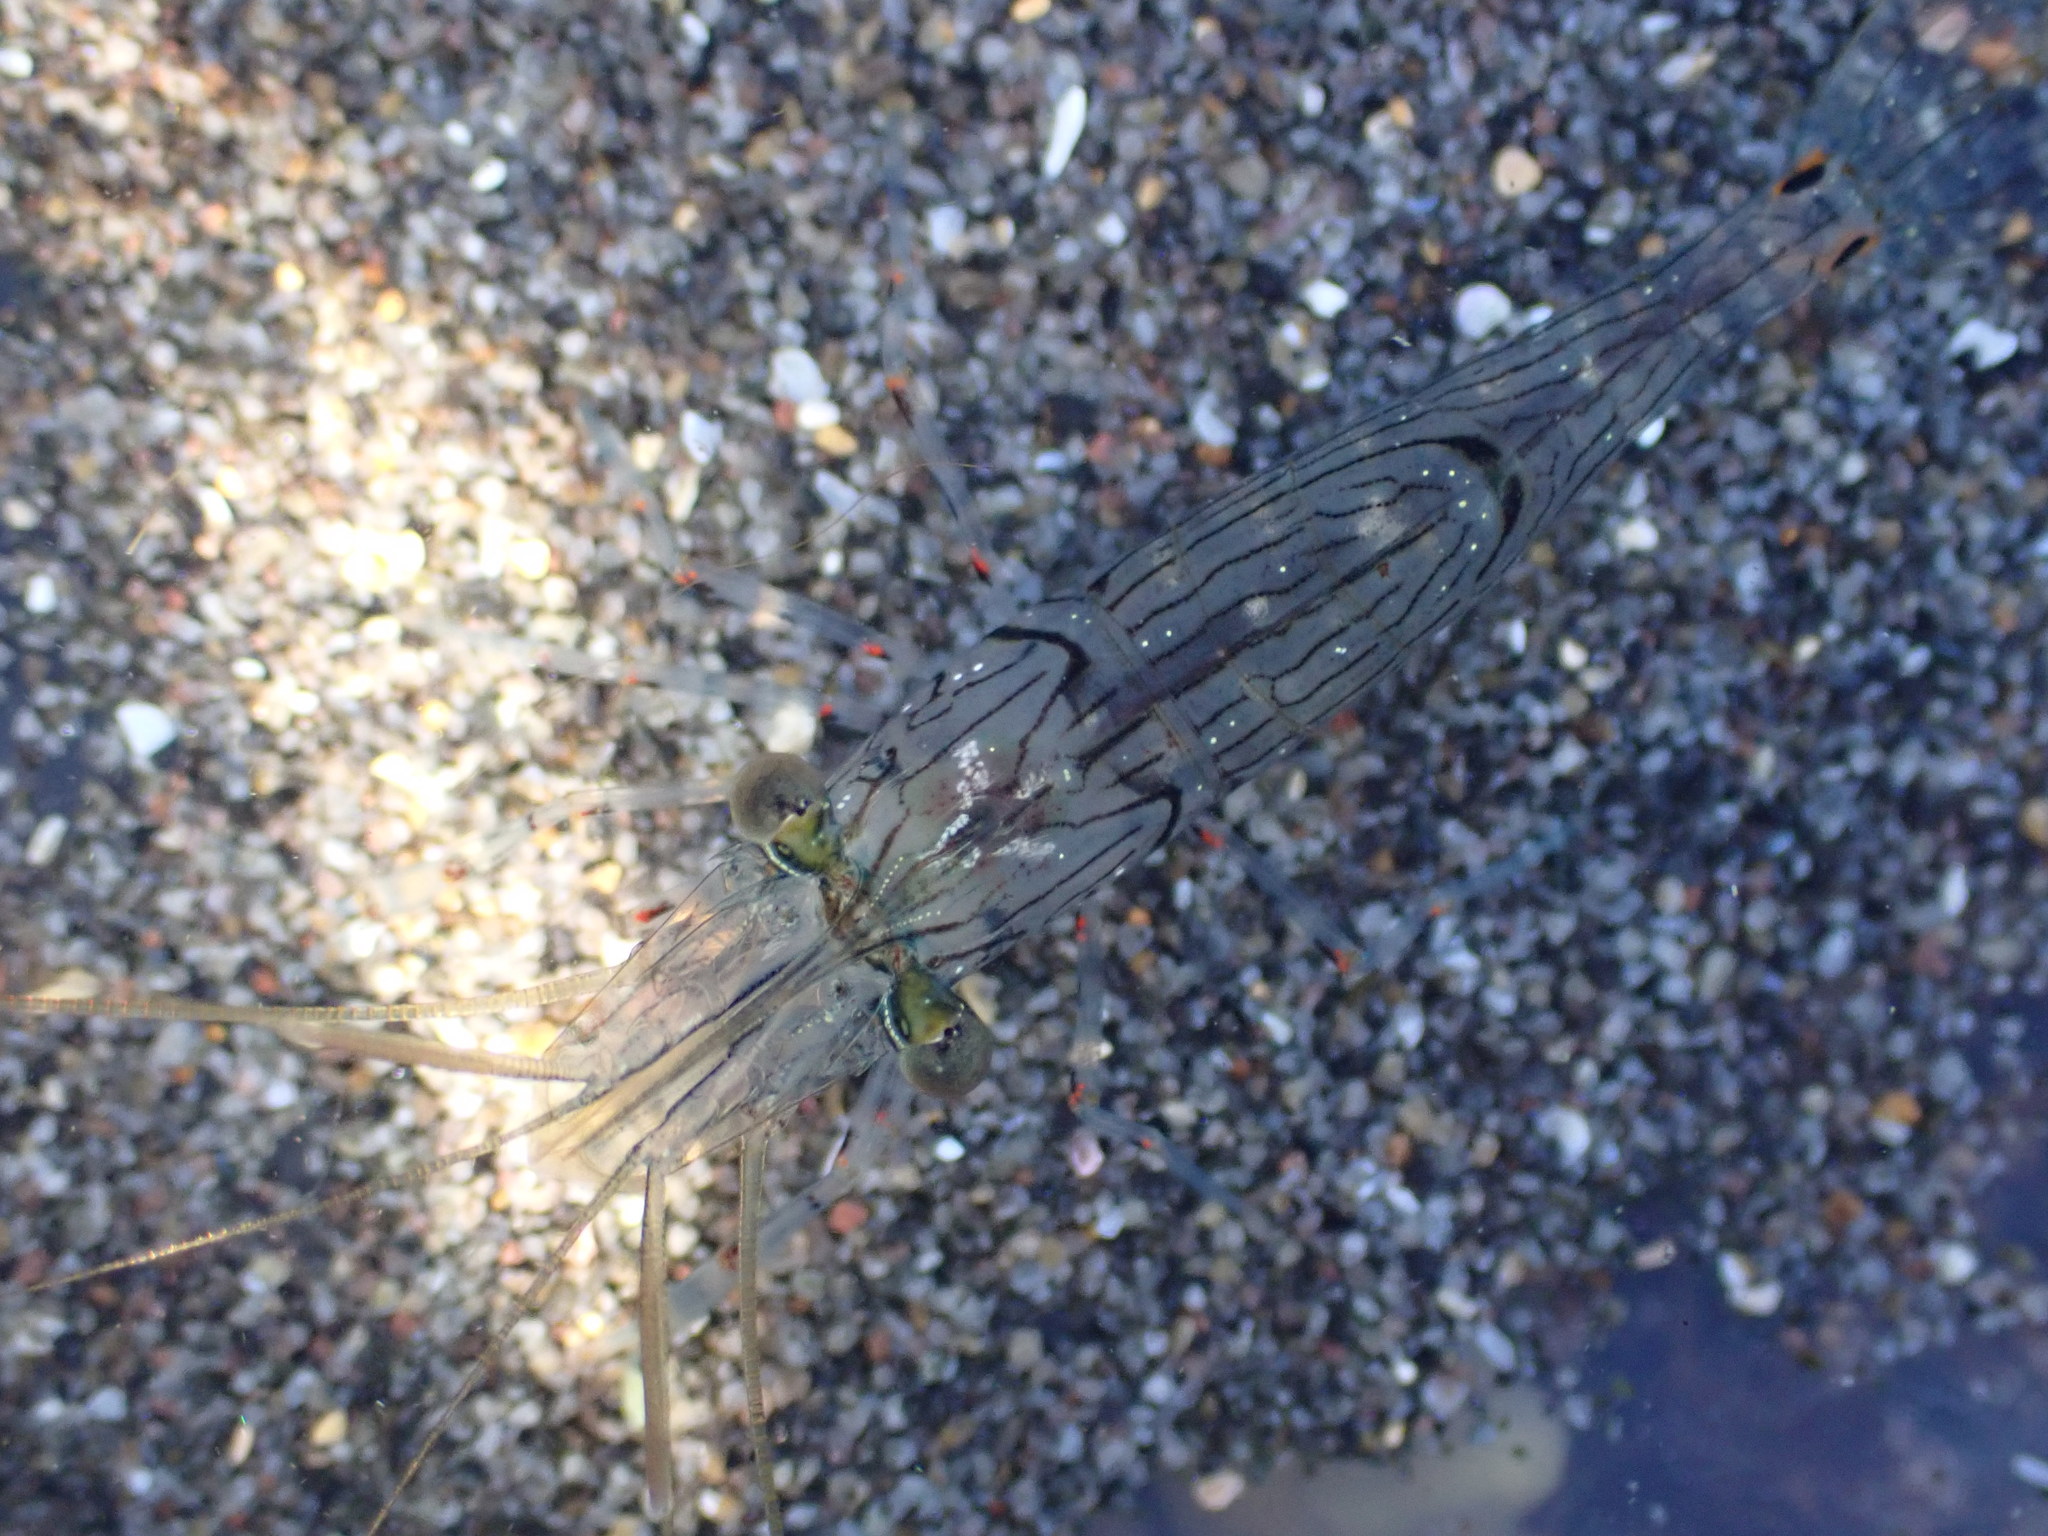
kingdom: Animalia
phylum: Arthropoda
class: Malacostraca
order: Decapoda
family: Palaemonidae
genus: Palaemon
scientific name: Palaemon affinis
